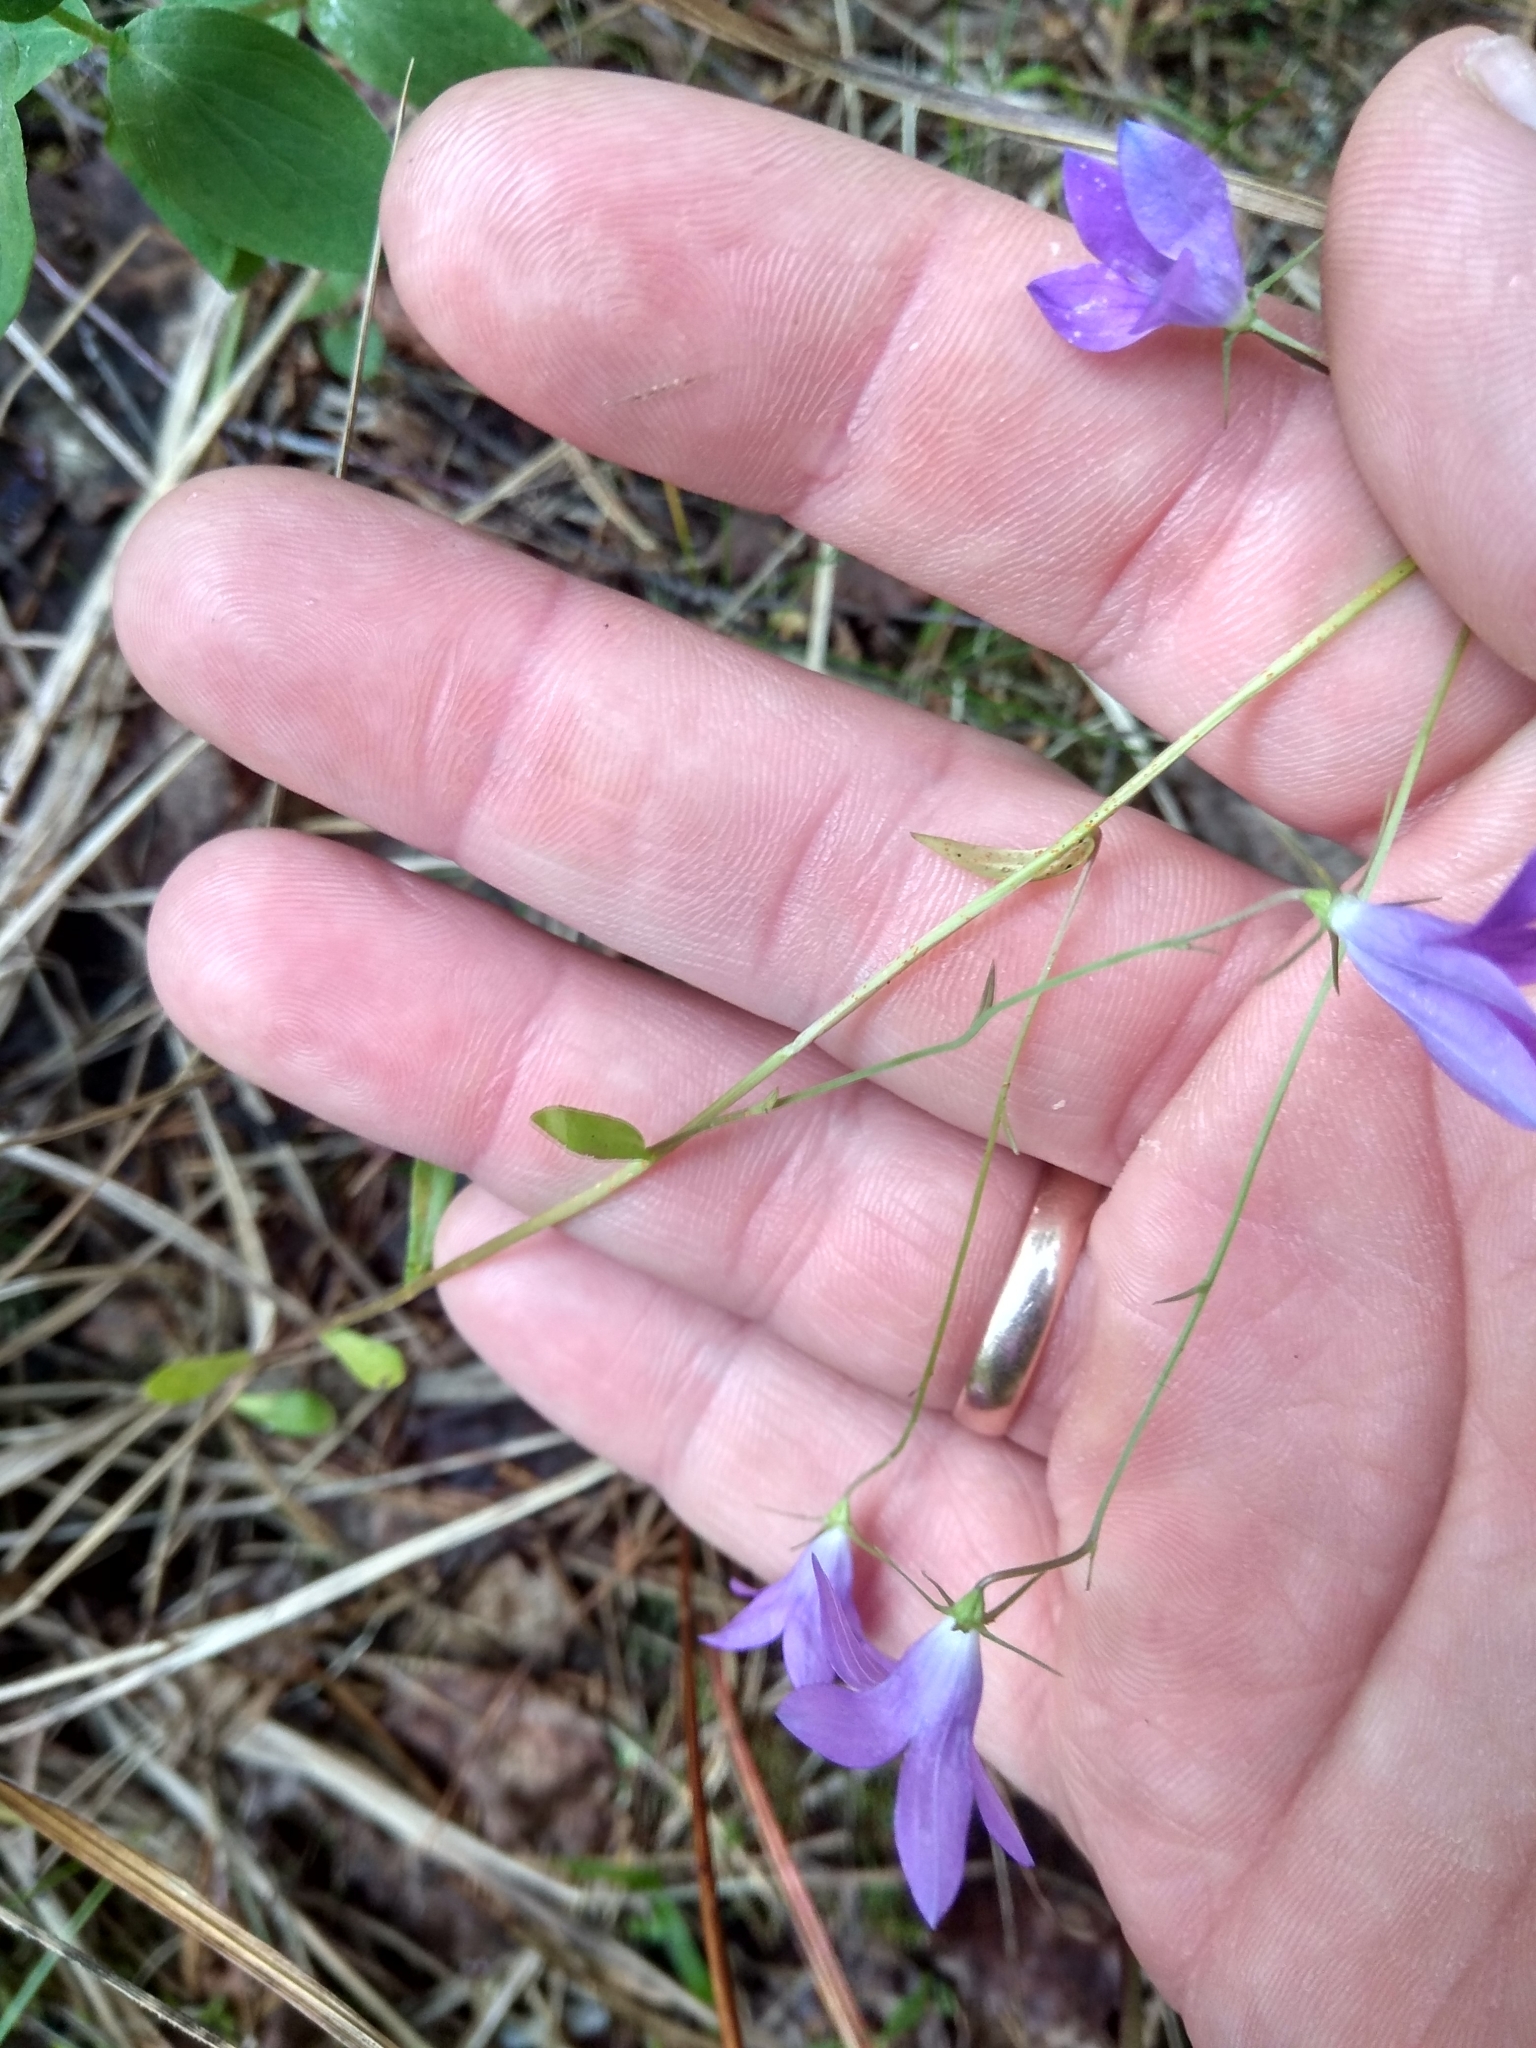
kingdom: Plantae
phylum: Tracheophyta
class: Magnoliopsida
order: Asterales
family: Campanulaceae
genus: Campanula
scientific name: Campanula patula
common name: Spreading bellflower
